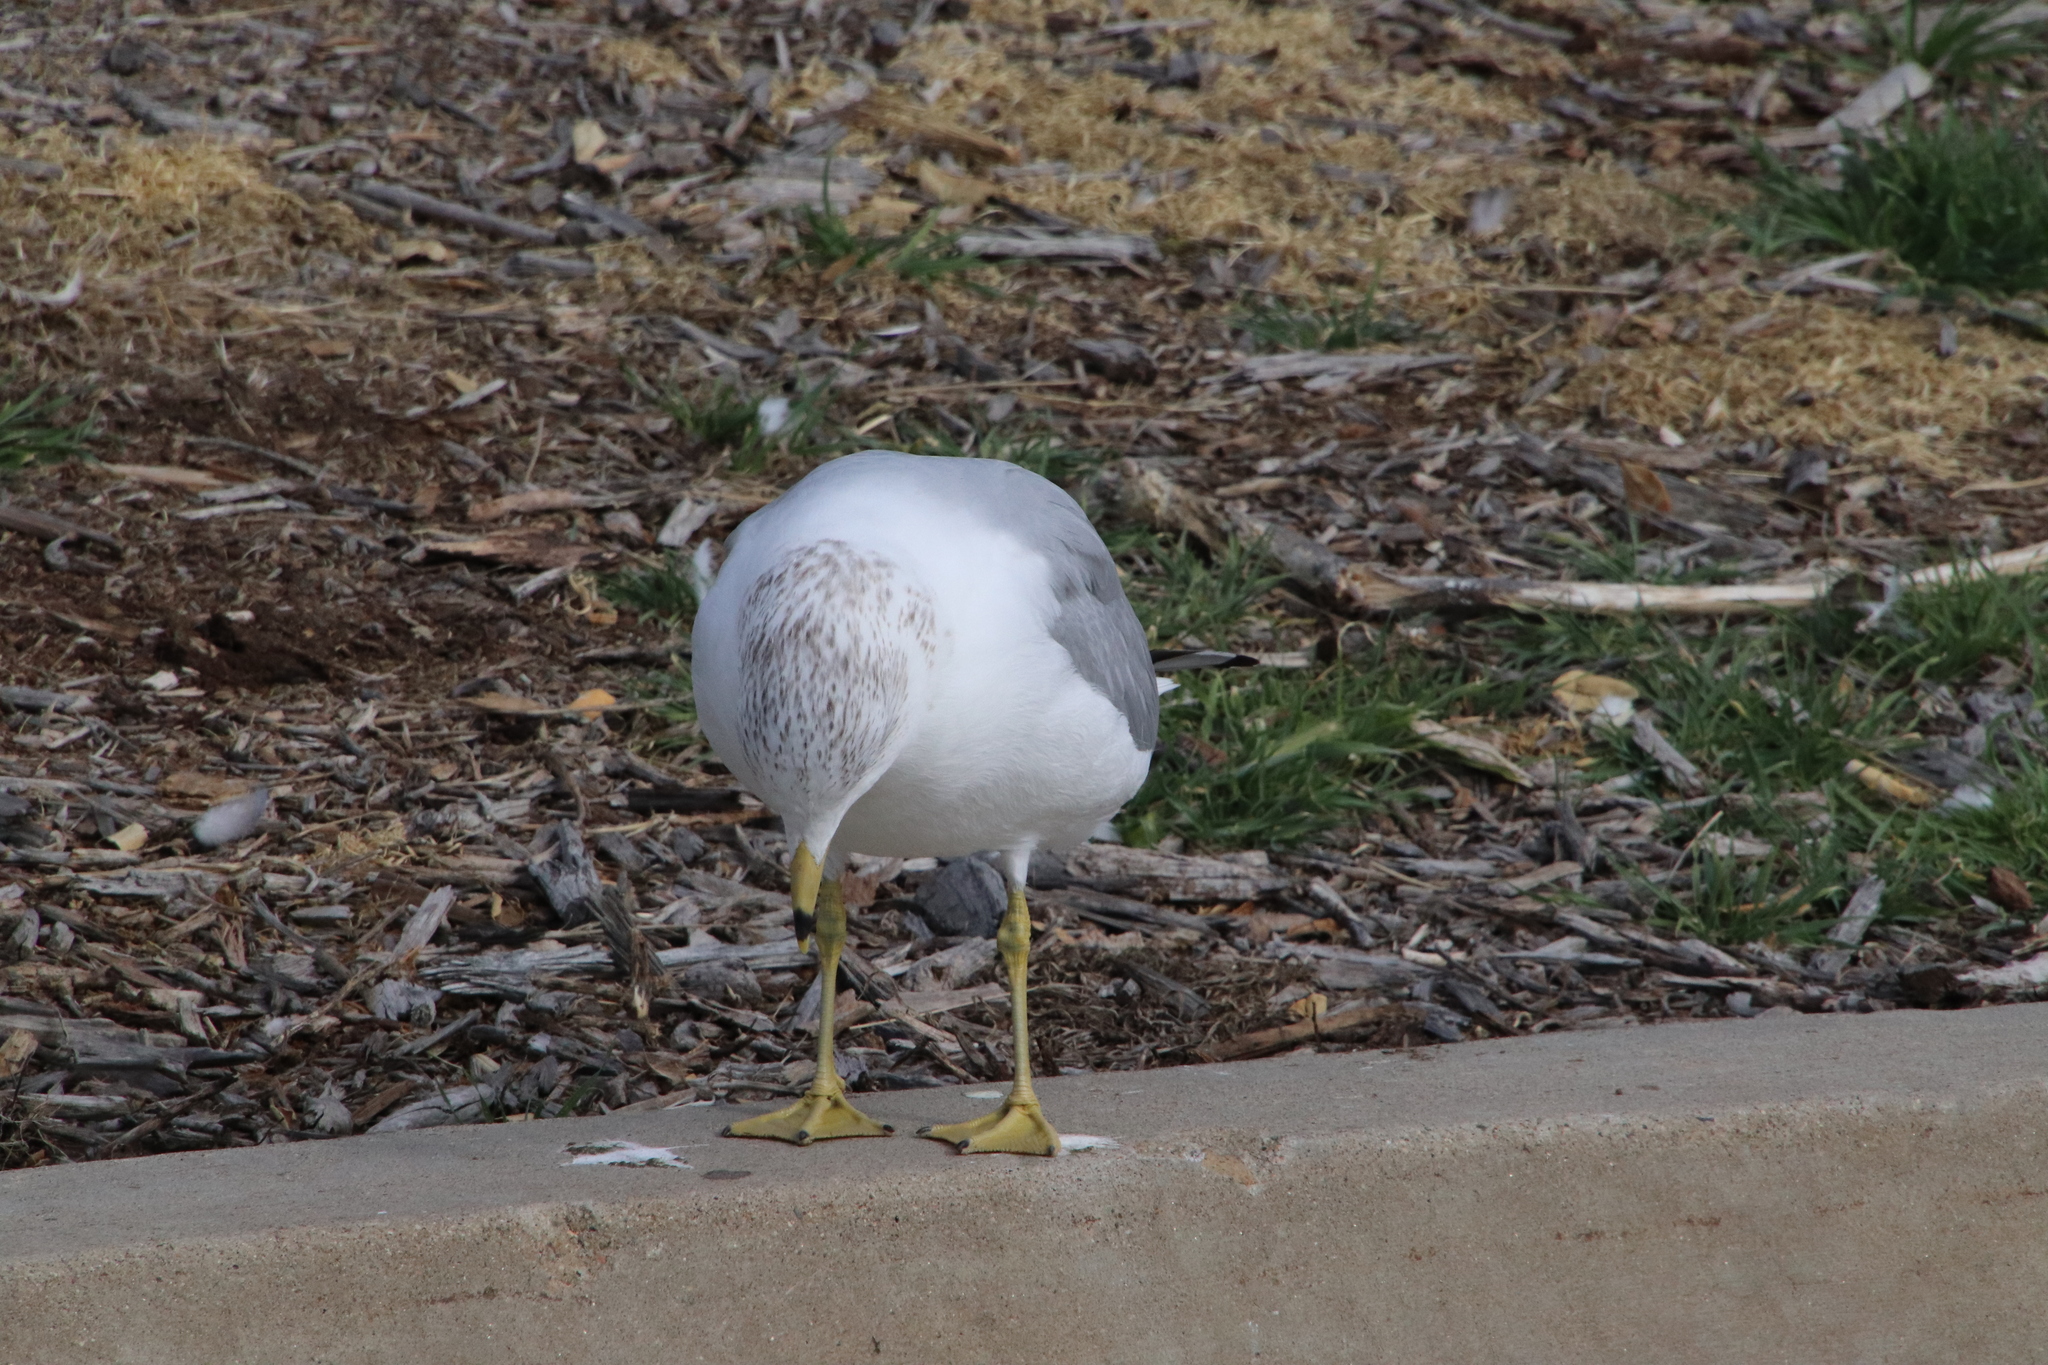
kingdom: Animalia
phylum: Chordata
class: Aves
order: Charadriiformes
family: Laridae
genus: Larus
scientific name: Larus delawarensis
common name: Ring-billed gull
